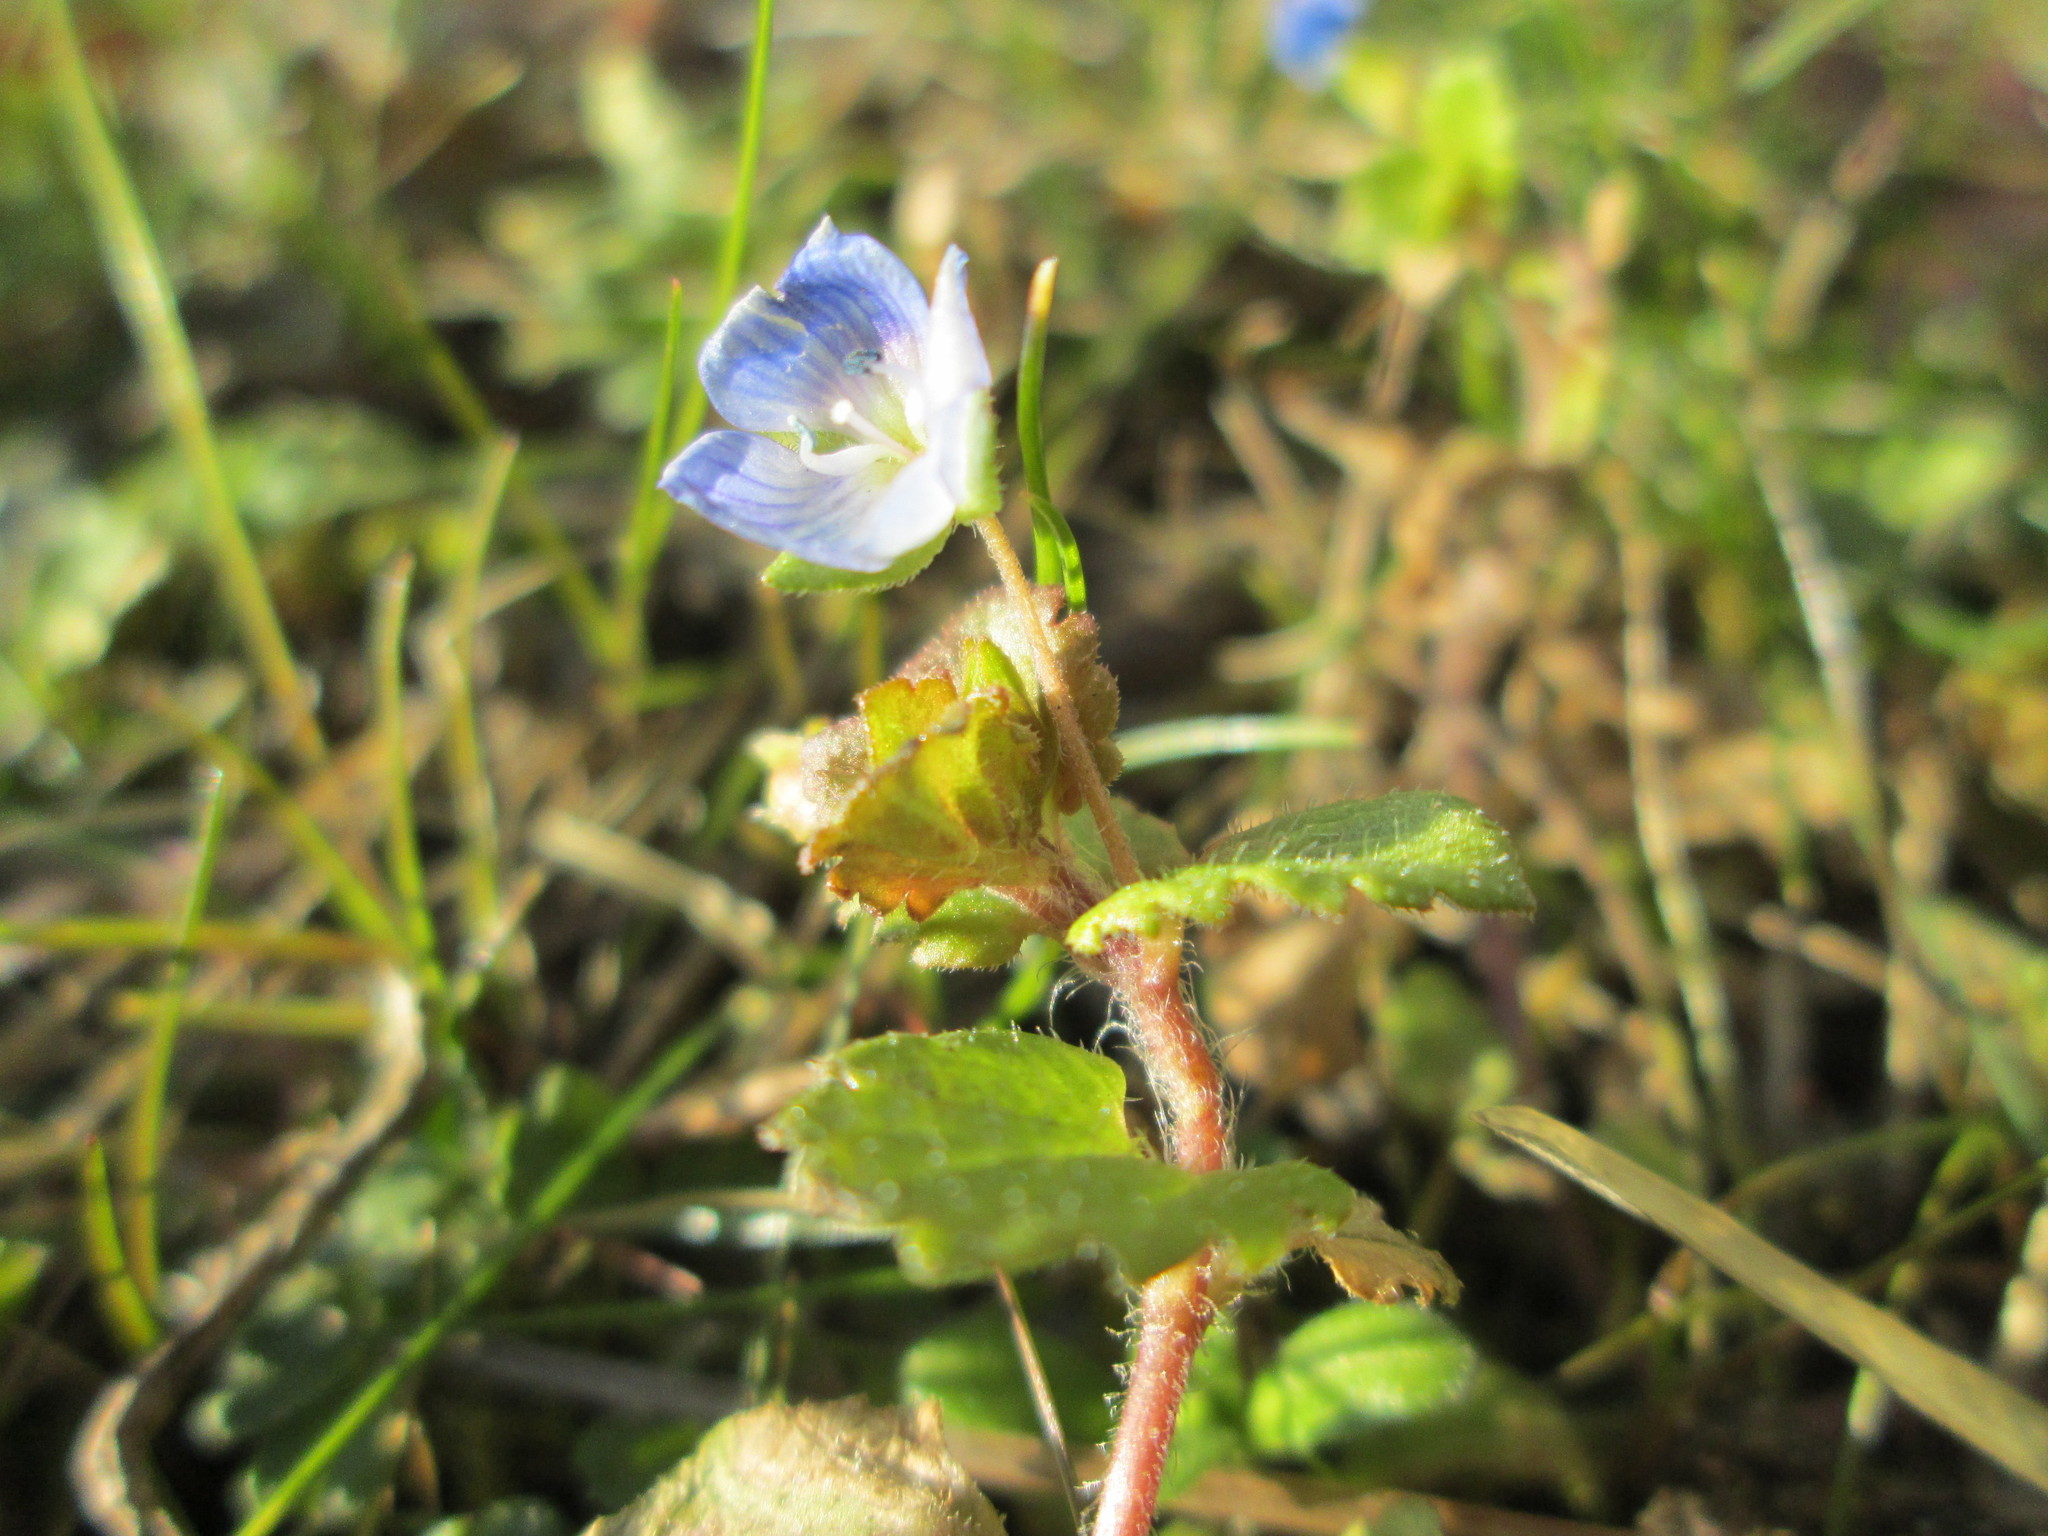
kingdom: Plantae
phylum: Tracheophyta
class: Magnoliopsida
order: Lamiales
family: Plantaginaceae
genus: Veronica
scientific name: Veronica persica
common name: Common field-speedwell
